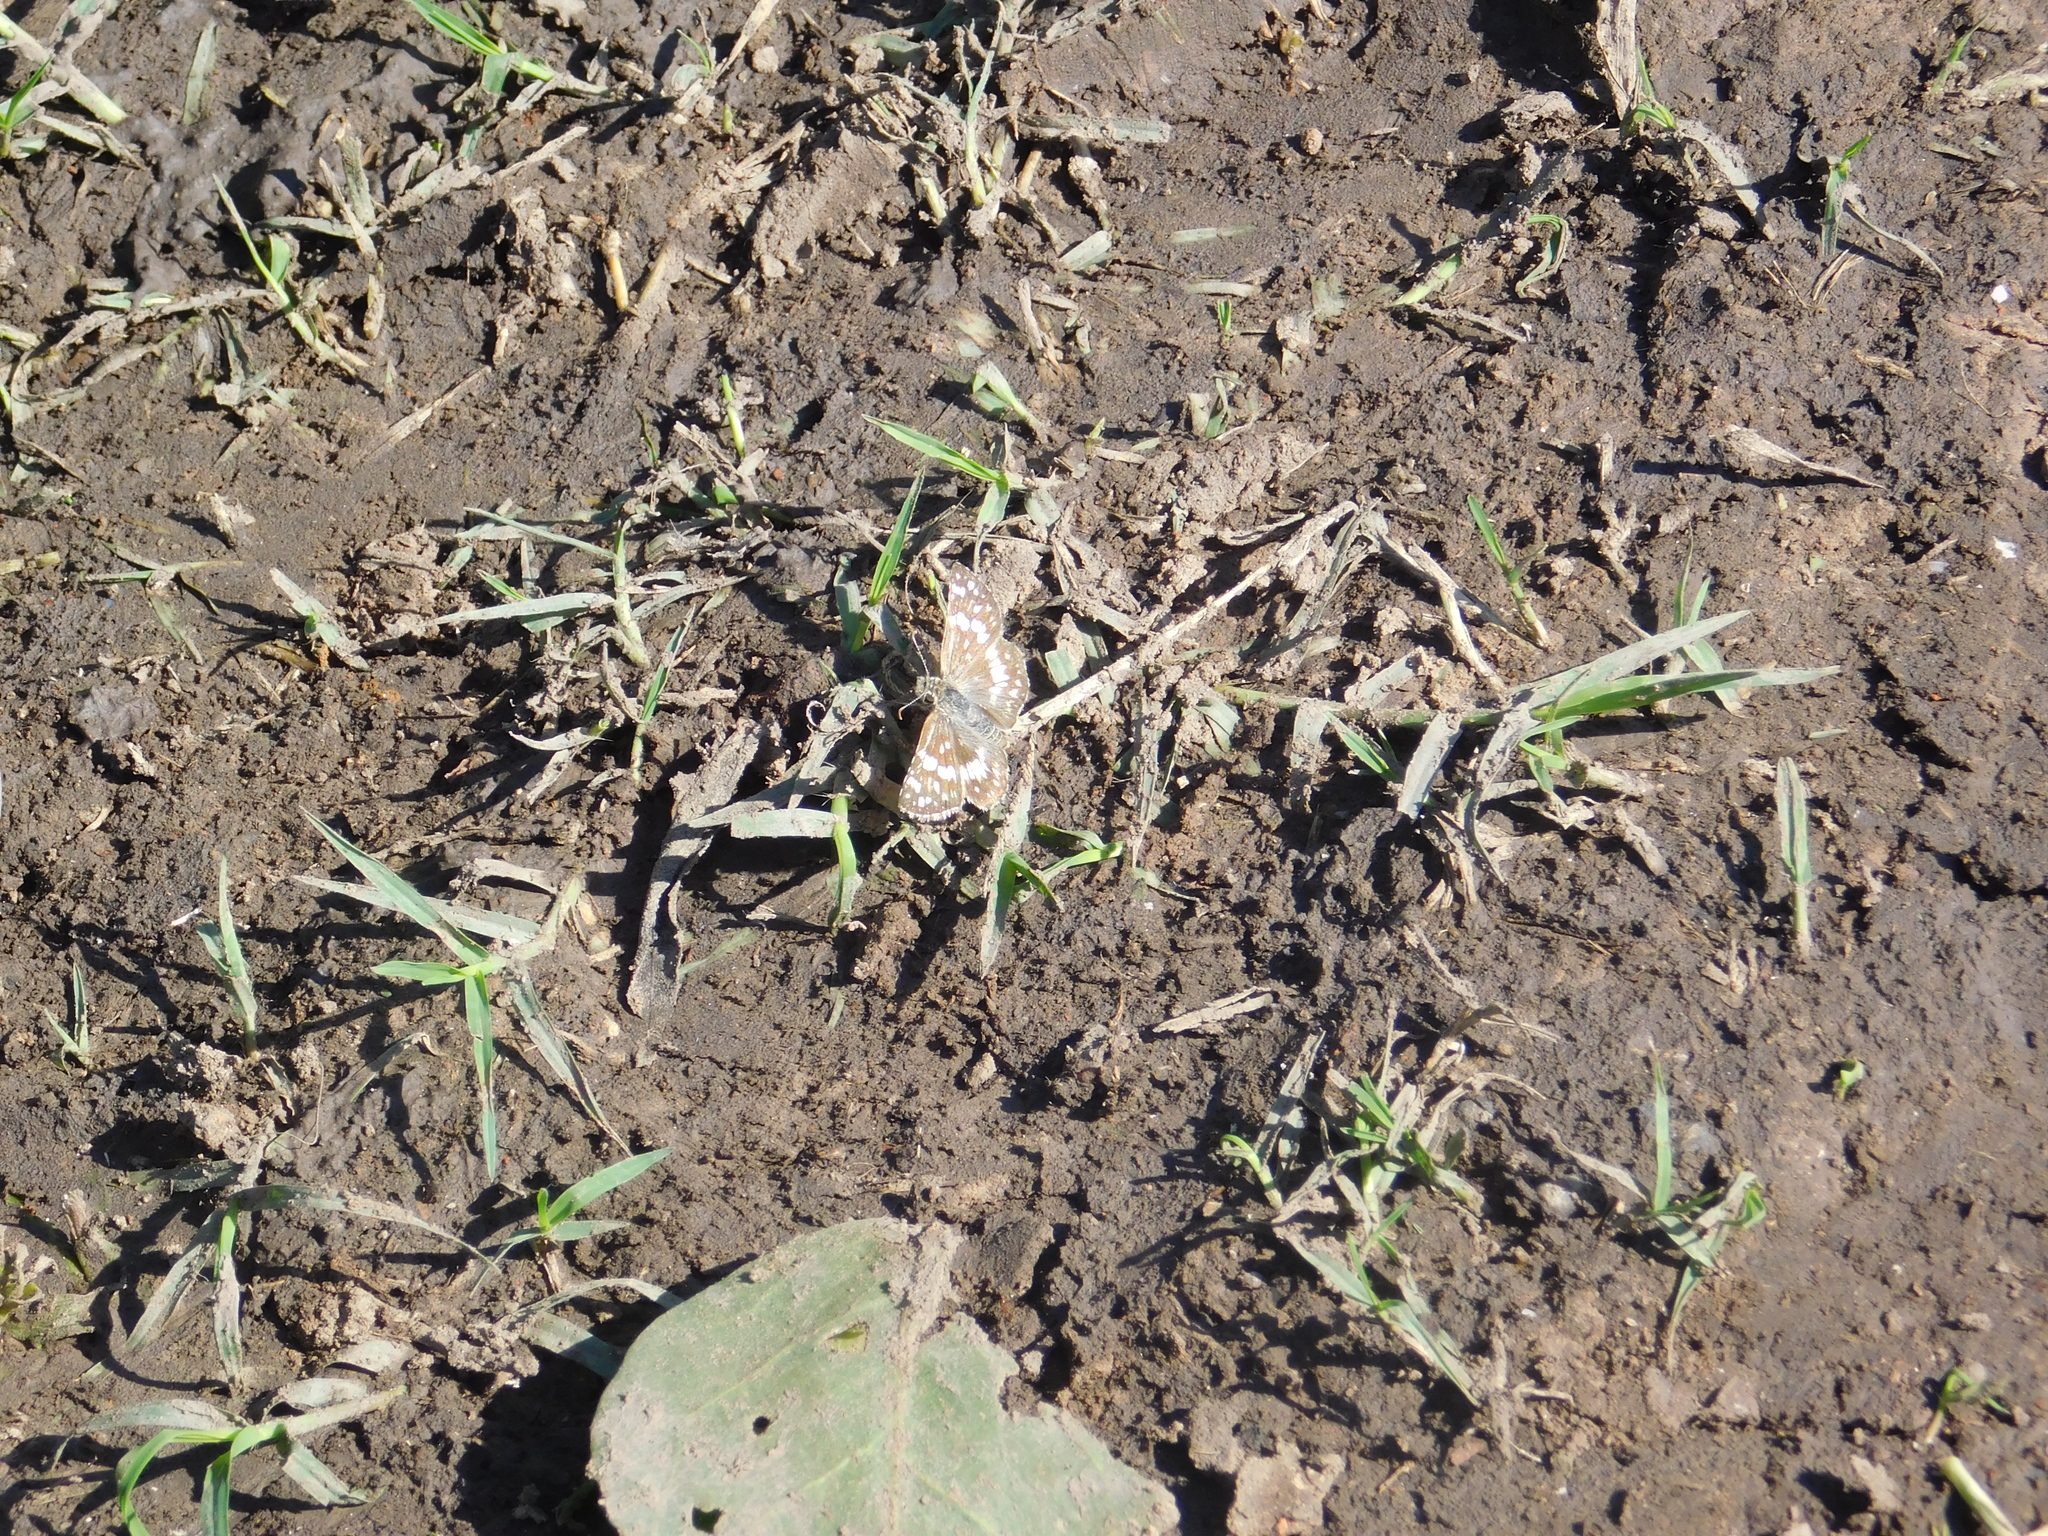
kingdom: Animalia
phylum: Arthropoda
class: Insecta
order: Lepidoptera
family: Hesperiidae
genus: Burnsius
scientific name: Burnsius orcynoides
